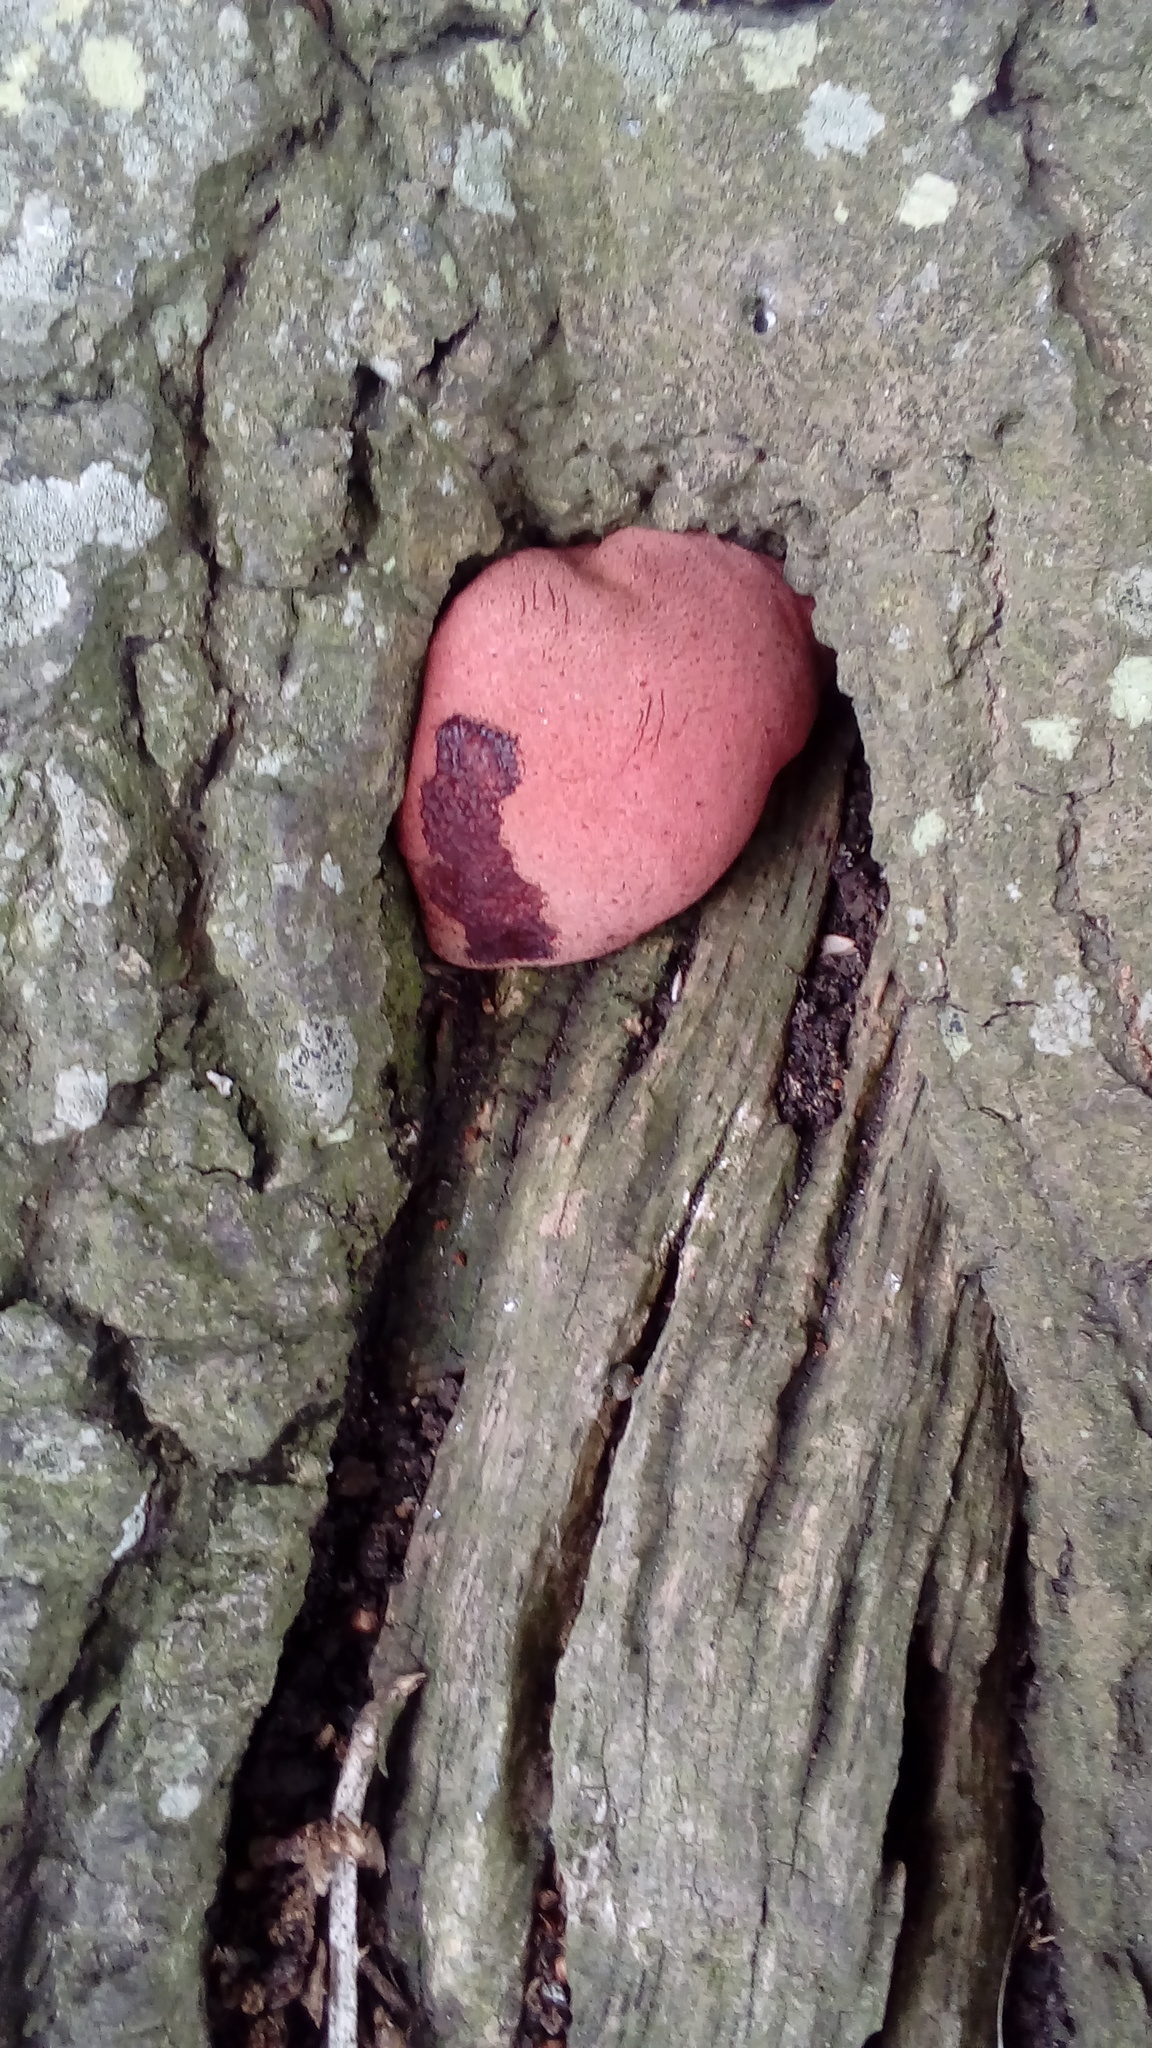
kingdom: Fungi
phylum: Basidiomycota
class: Agaricomycetes
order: Agaricales
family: Fistulinaceae
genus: Fistulina
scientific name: Fistulina hepatica
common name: Beef-steak fungus
